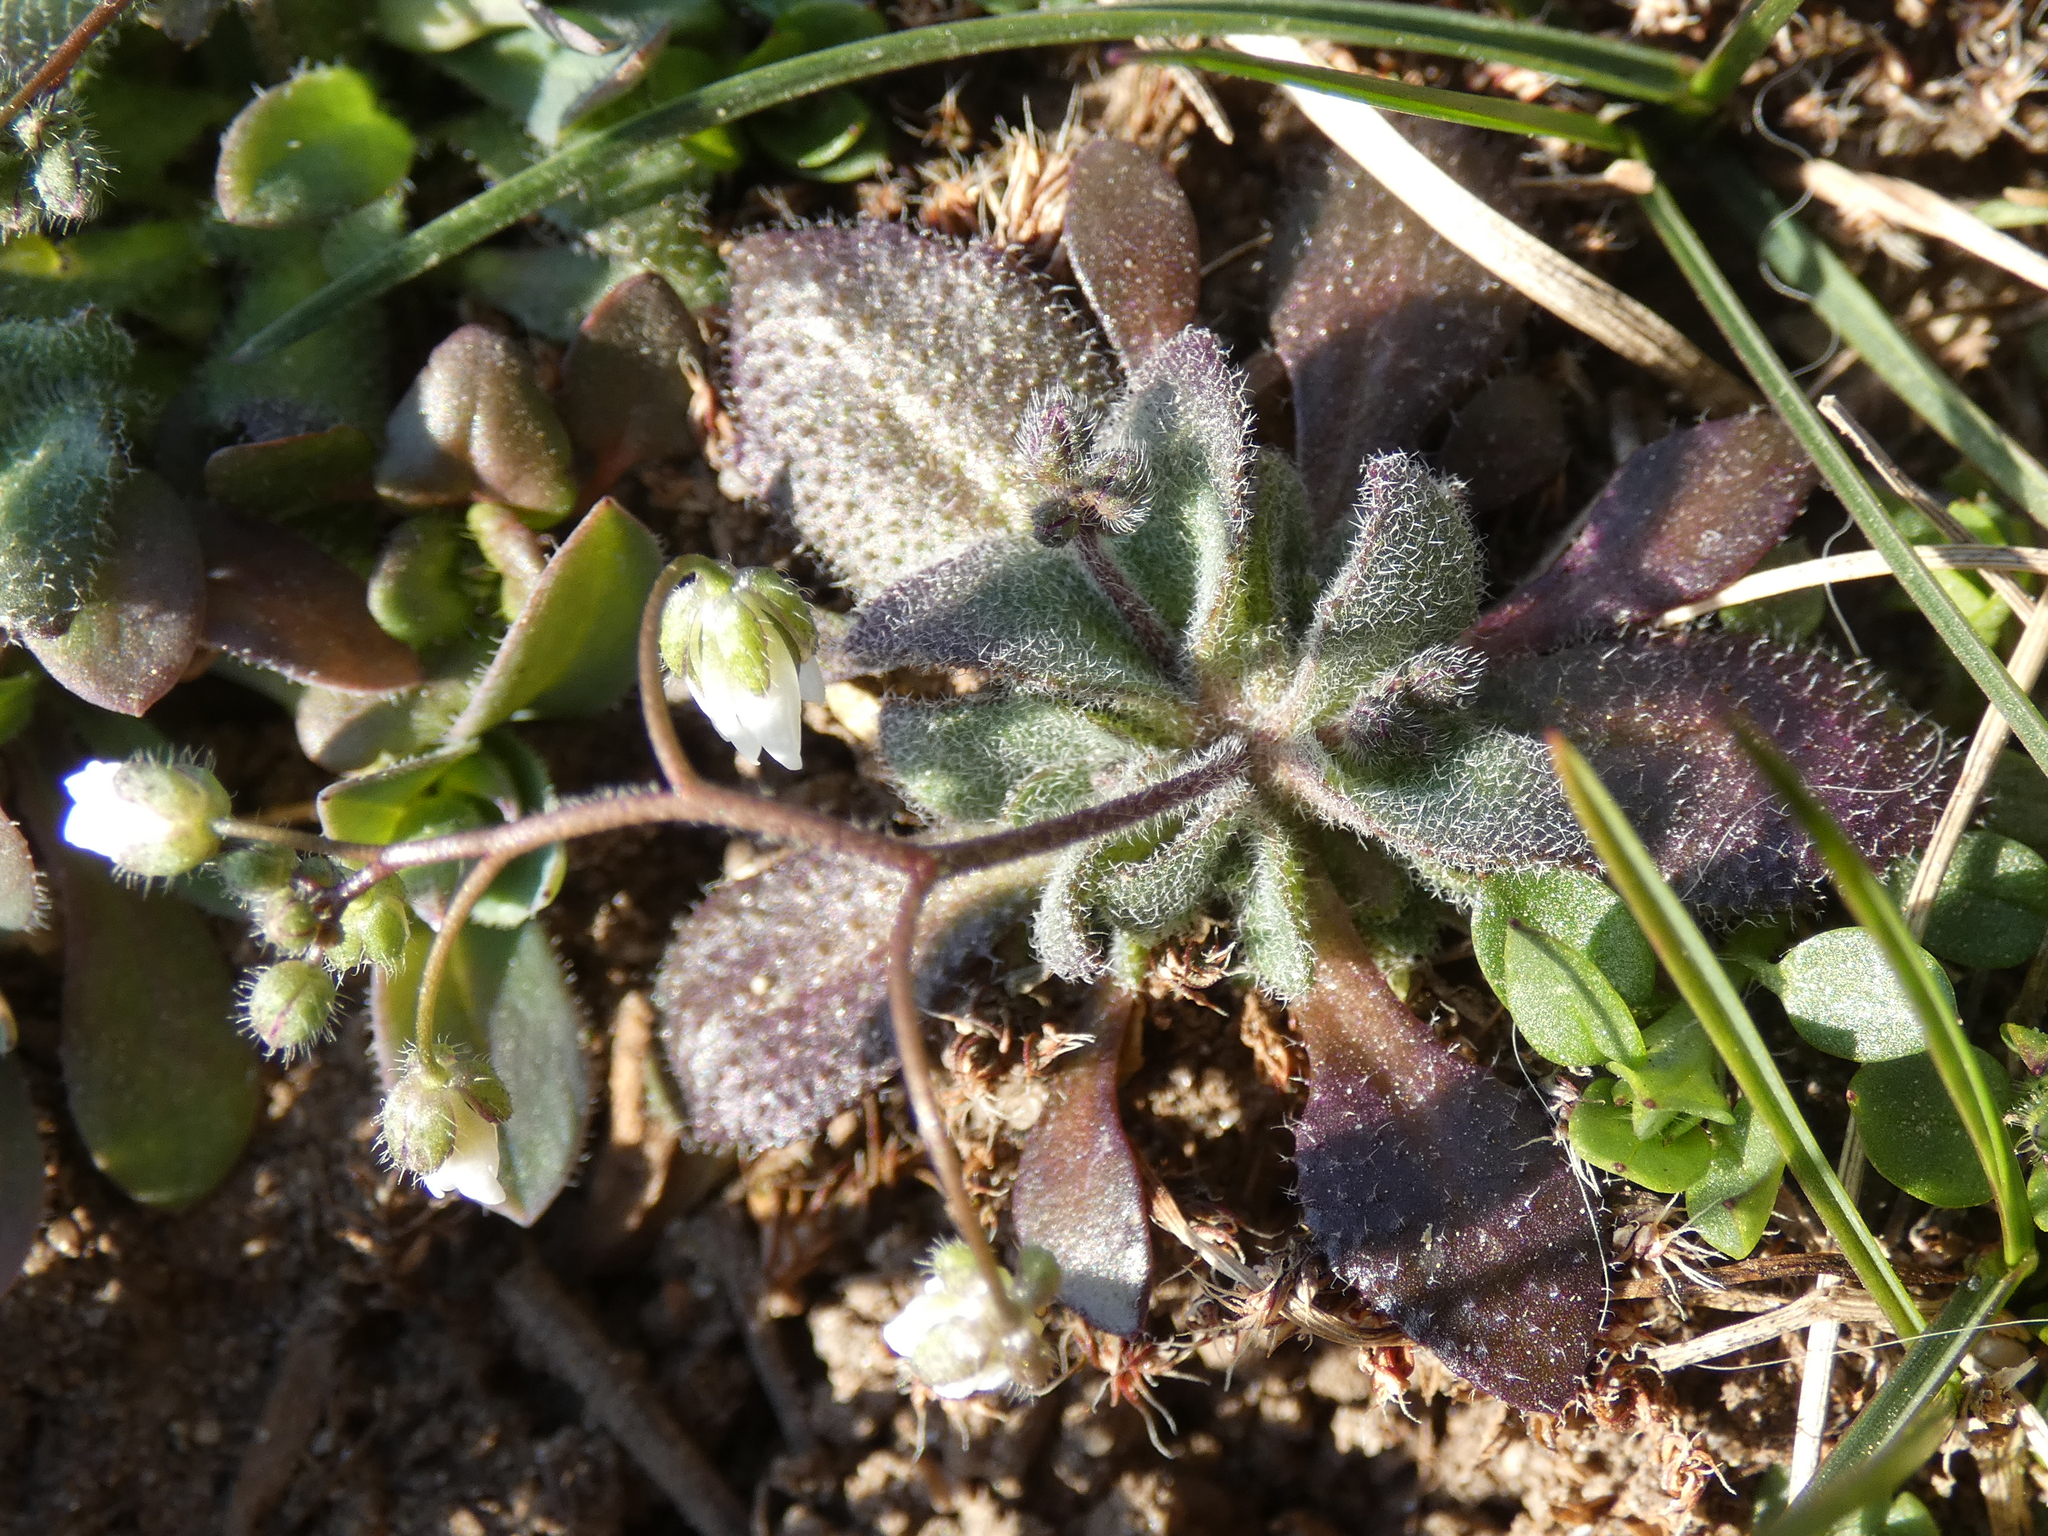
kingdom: Plantae
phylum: Tracheophyta
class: Magnoliopsida
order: Brassicales
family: Brassicaceae
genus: Draba
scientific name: Draba verna
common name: Spring draba
